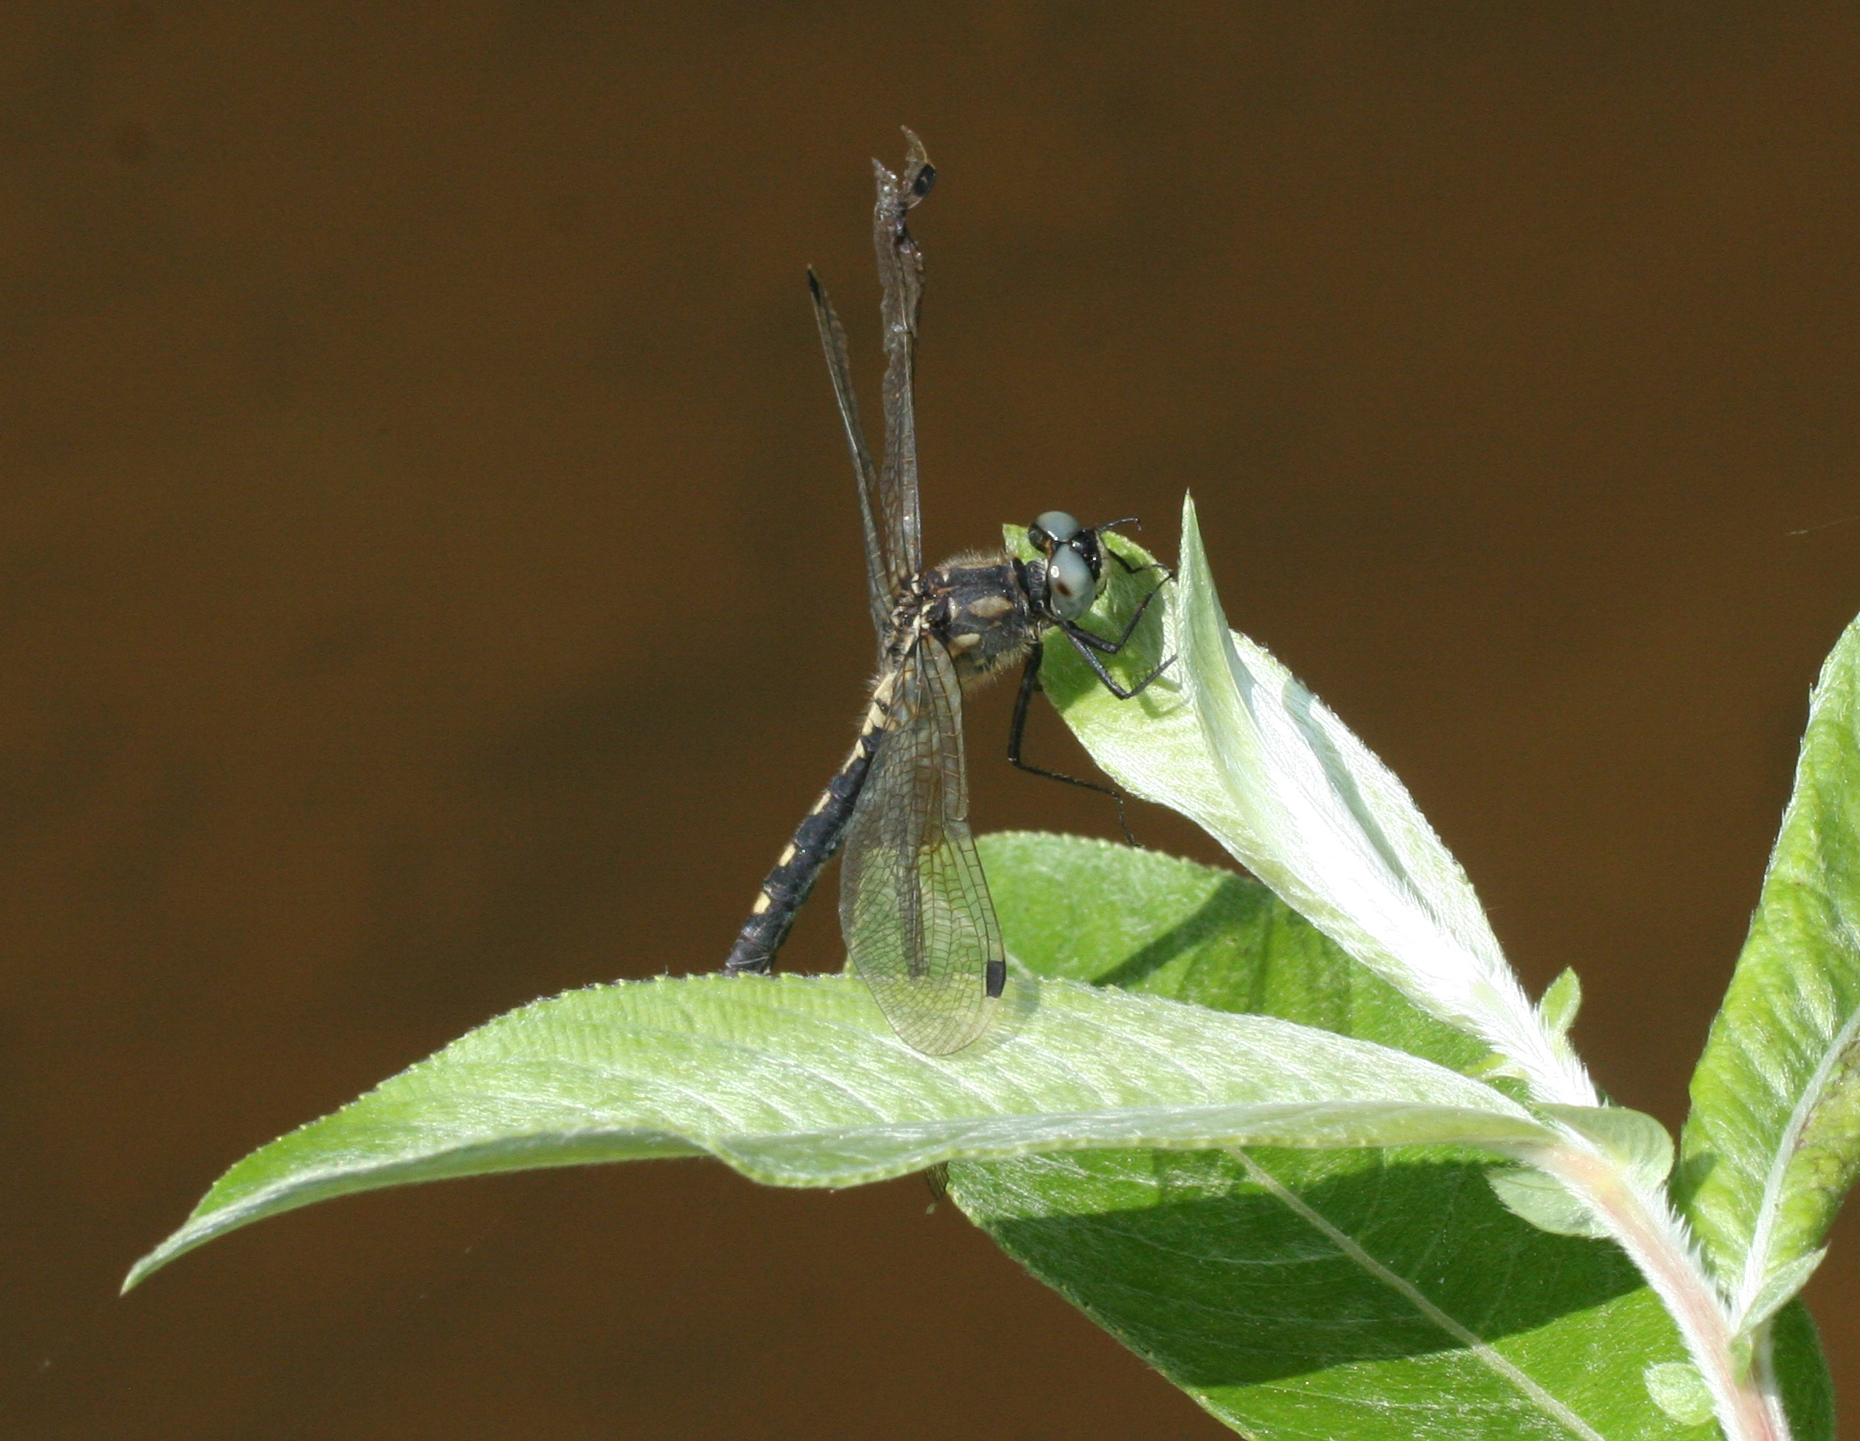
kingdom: Animalia
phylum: Arthropoda
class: Insecta
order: Odonata
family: Libellulidae
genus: Leucorrhinia
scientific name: Leucorrhinia orientalis
